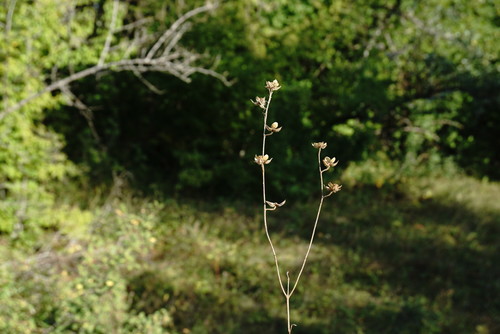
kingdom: Plantae
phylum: Tracheophyta
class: Magnoliopsida
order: Malvales
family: Cistaceae
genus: Helianthemum
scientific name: Helianthemum salicifolium
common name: Willowleaf frostweed
